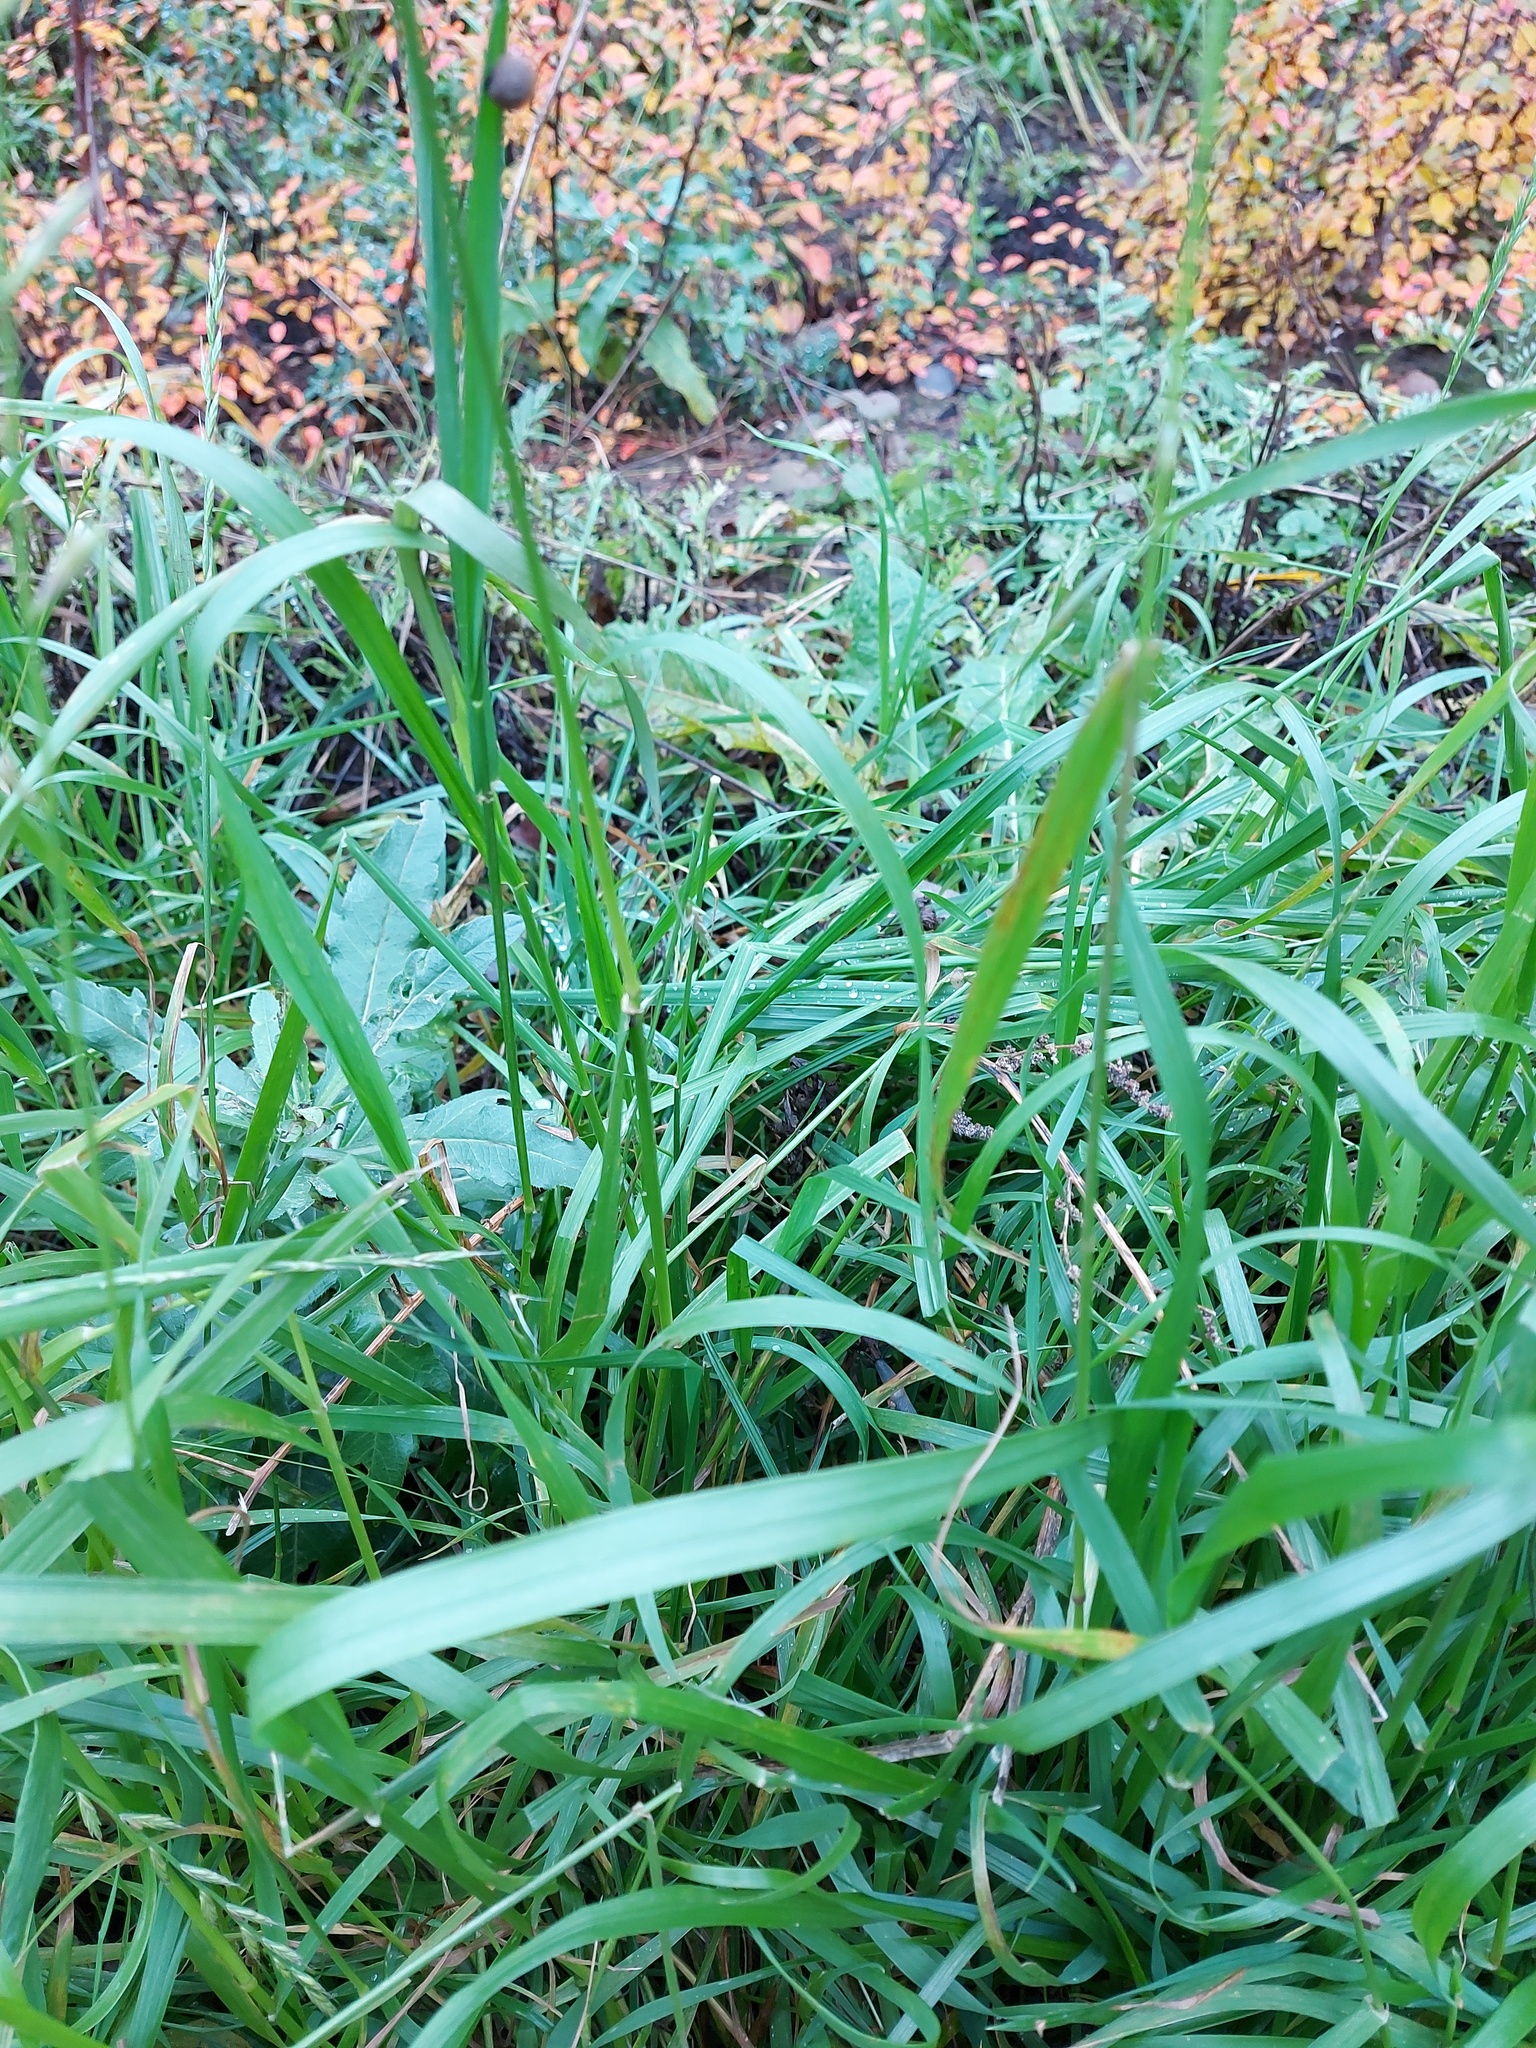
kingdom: Plantae
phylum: Tracheophyta
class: Liliopsida
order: Poales
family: Poaceae
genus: Lolium
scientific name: Lolium multiflorum
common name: Annual ryegrass
